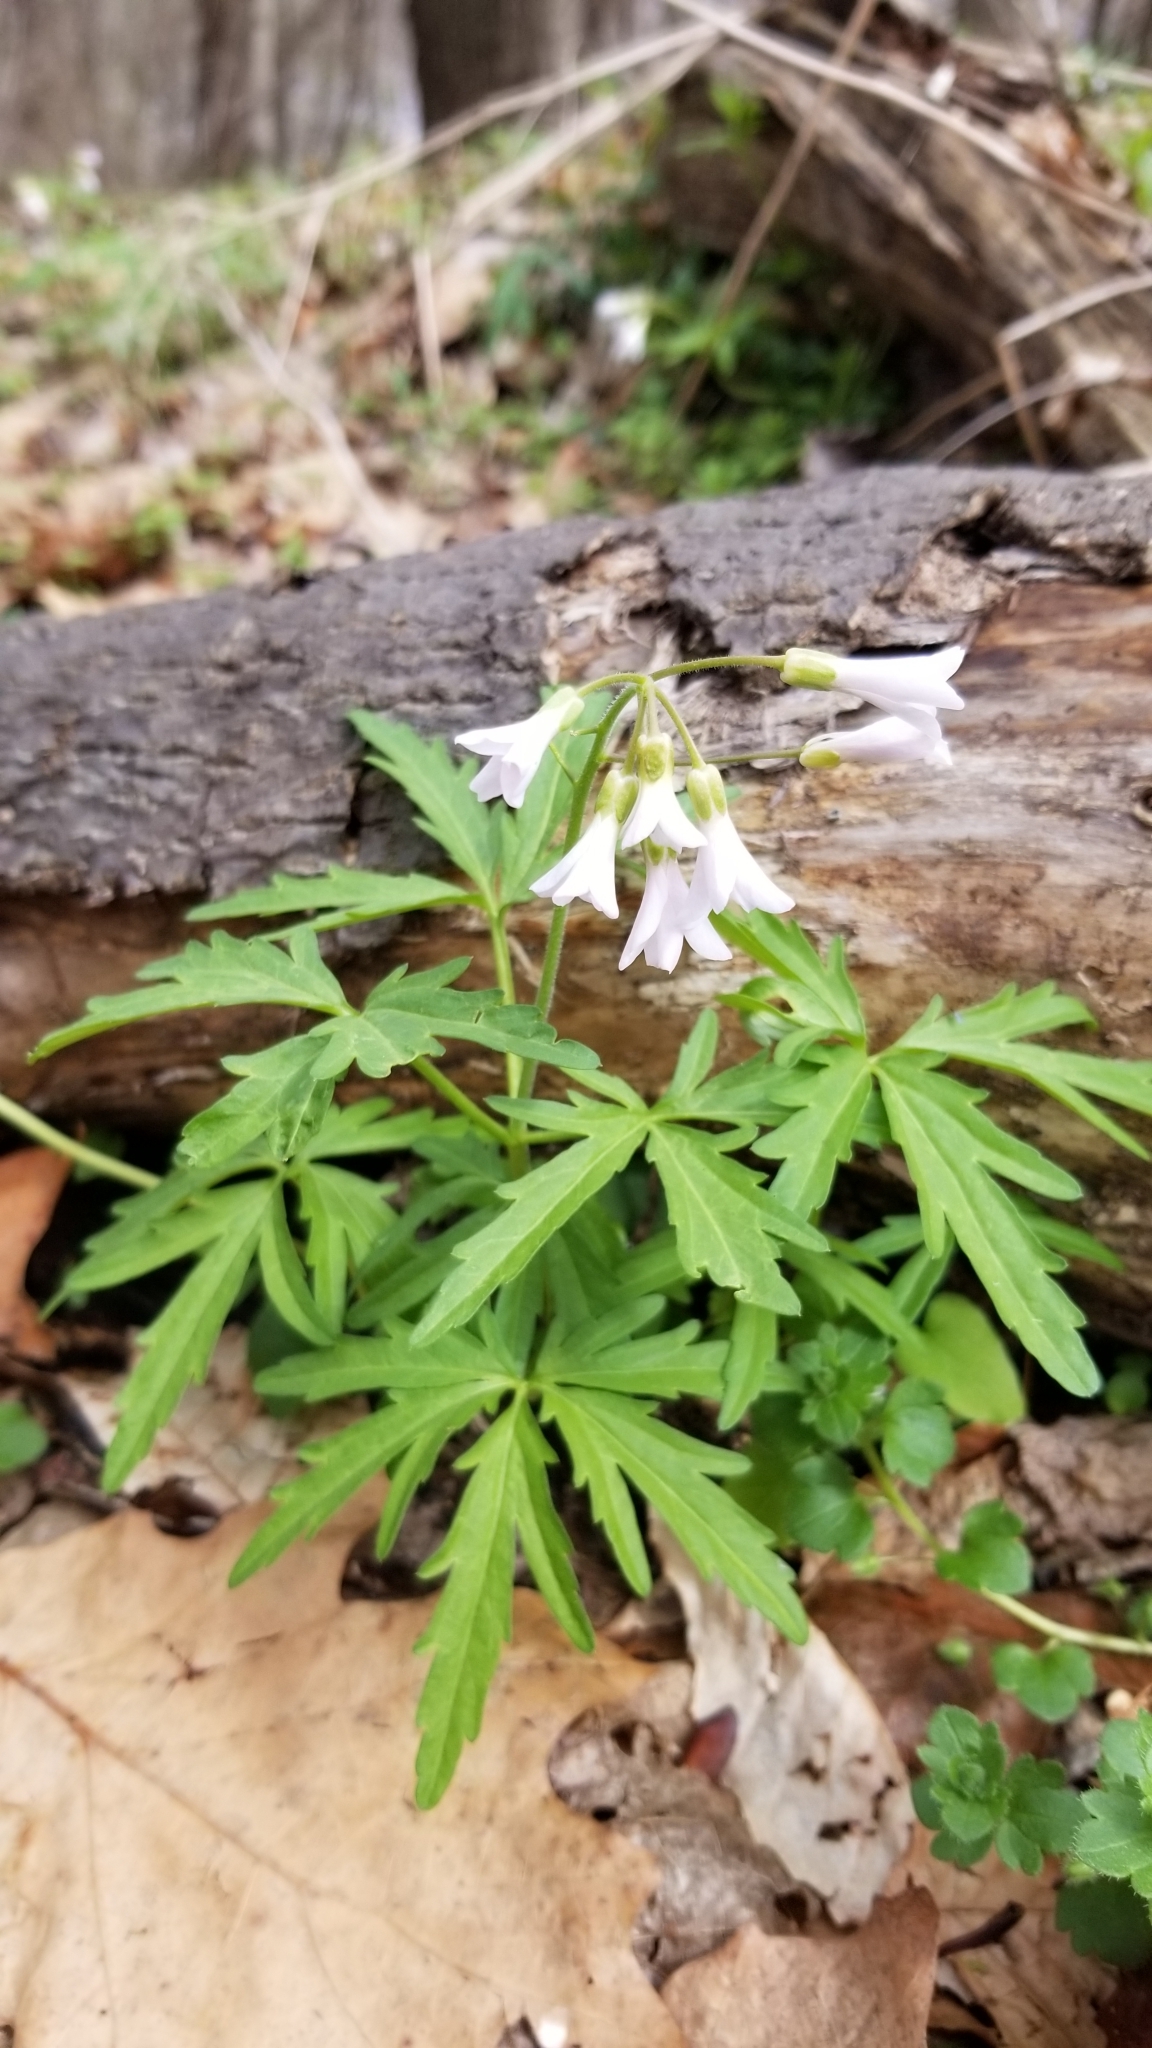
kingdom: Plantae
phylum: Tracheophyta
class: Magnoliopsida
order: Brassicales
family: Brassicaceae
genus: Cardamine
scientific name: Cardamine concatenata
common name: Cut-leaf toothcup
